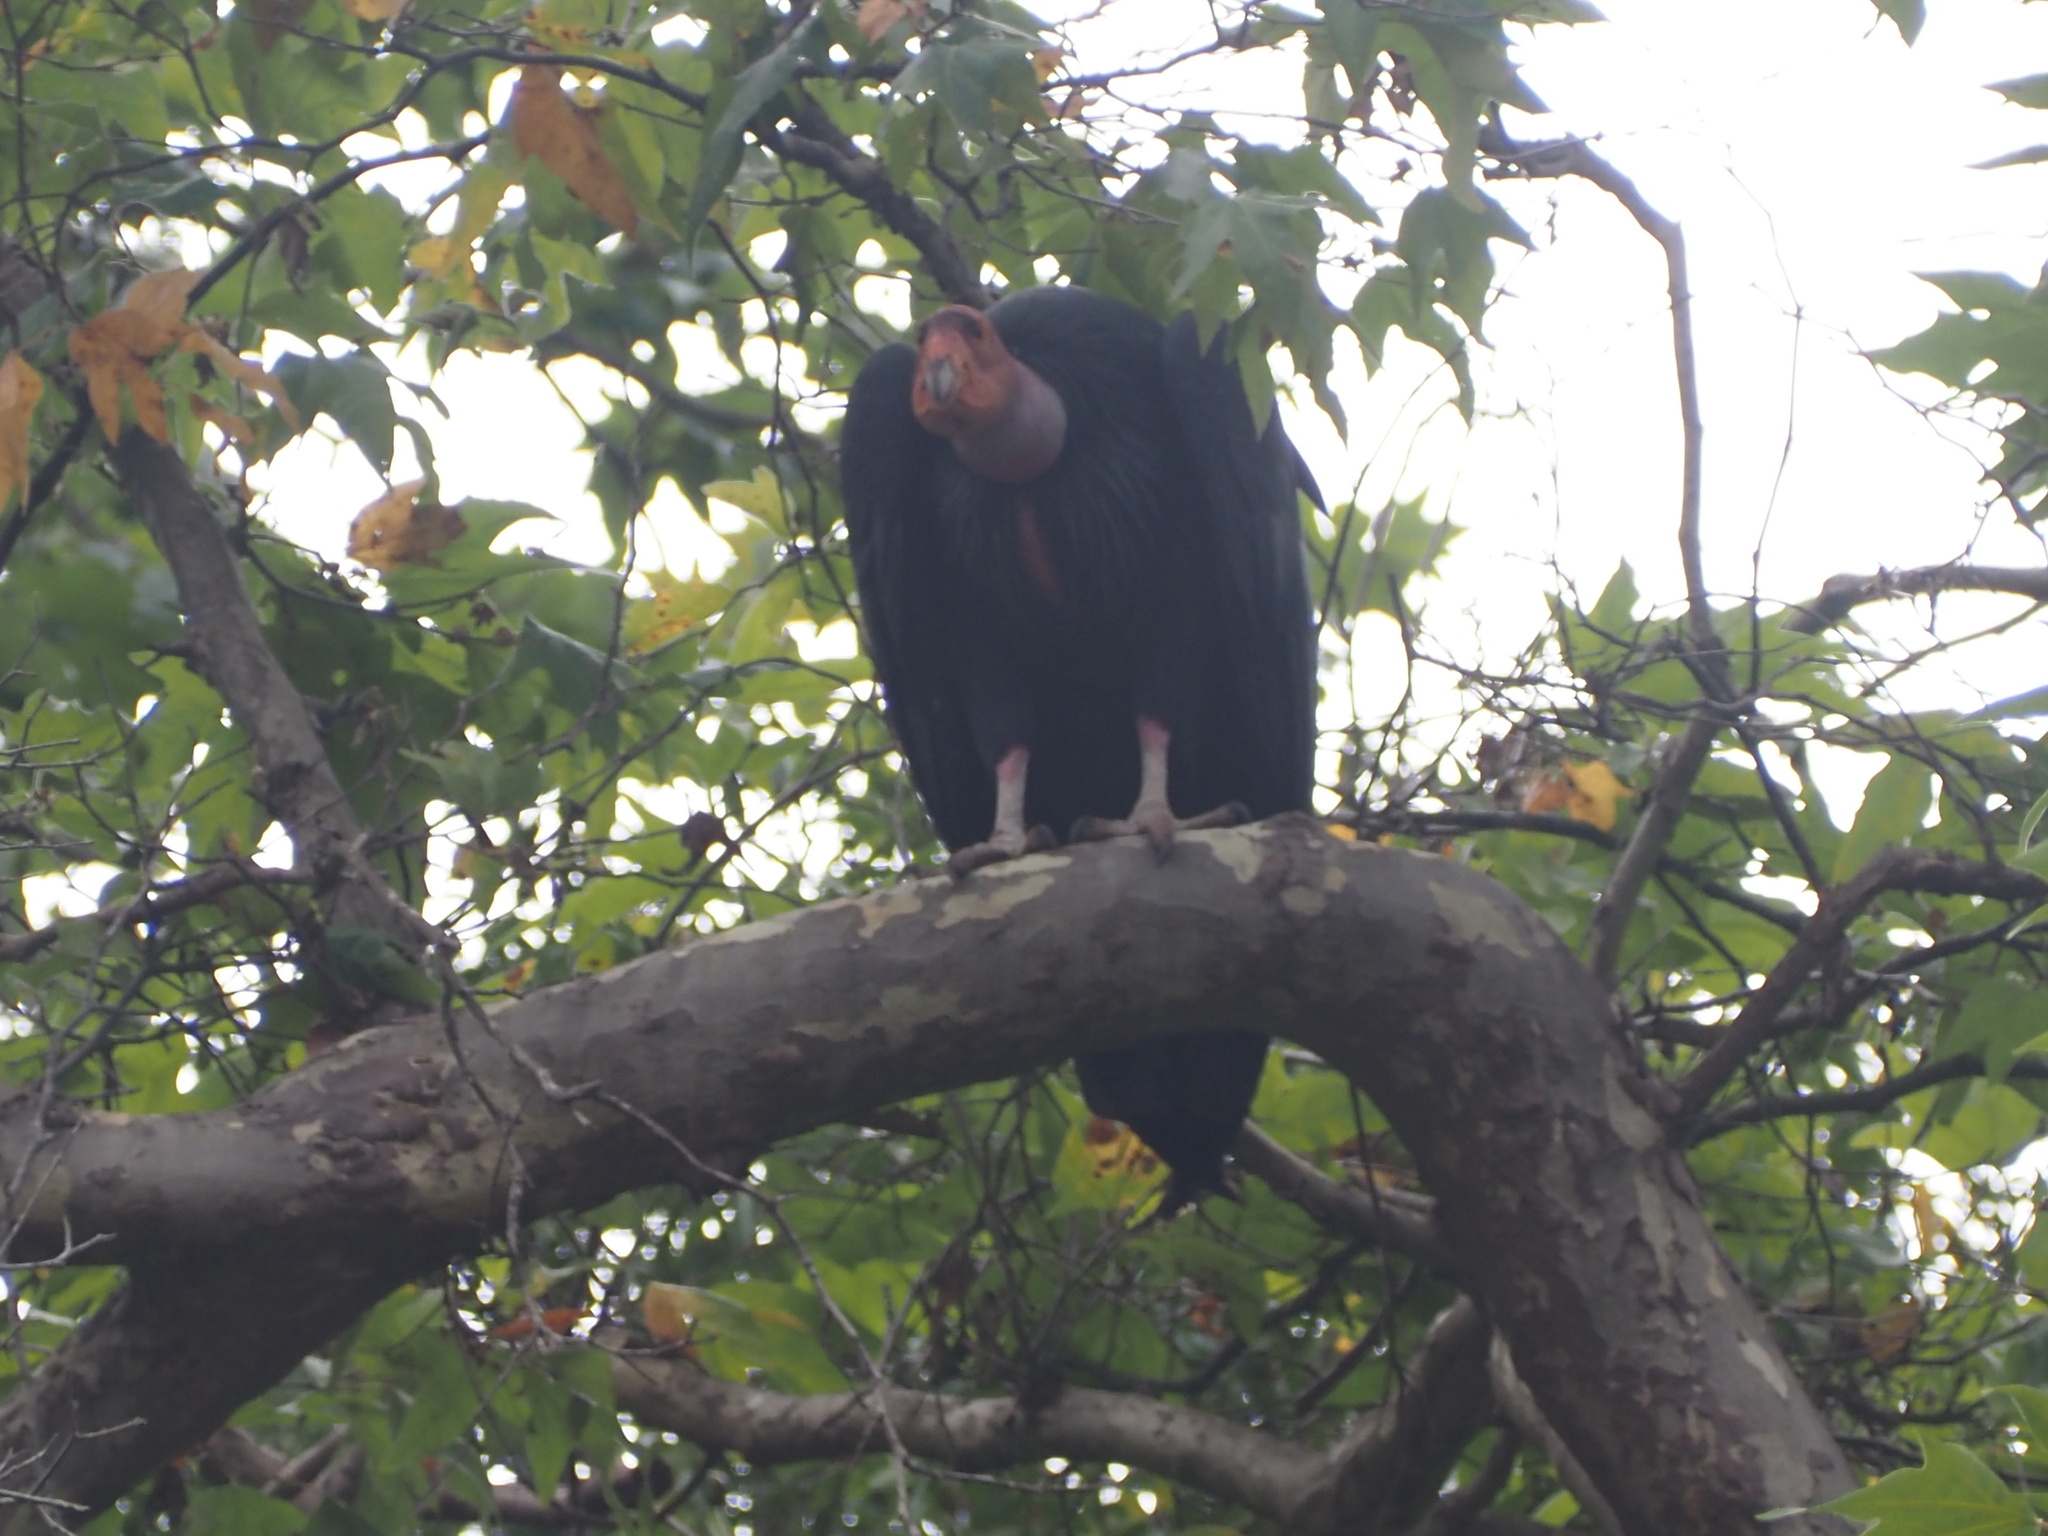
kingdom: Animalia
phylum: Chordata
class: Aves
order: Accipitriformes
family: Cathartidae
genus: Gymnogyps
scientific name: Gymnogyps californianus
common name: California condor
